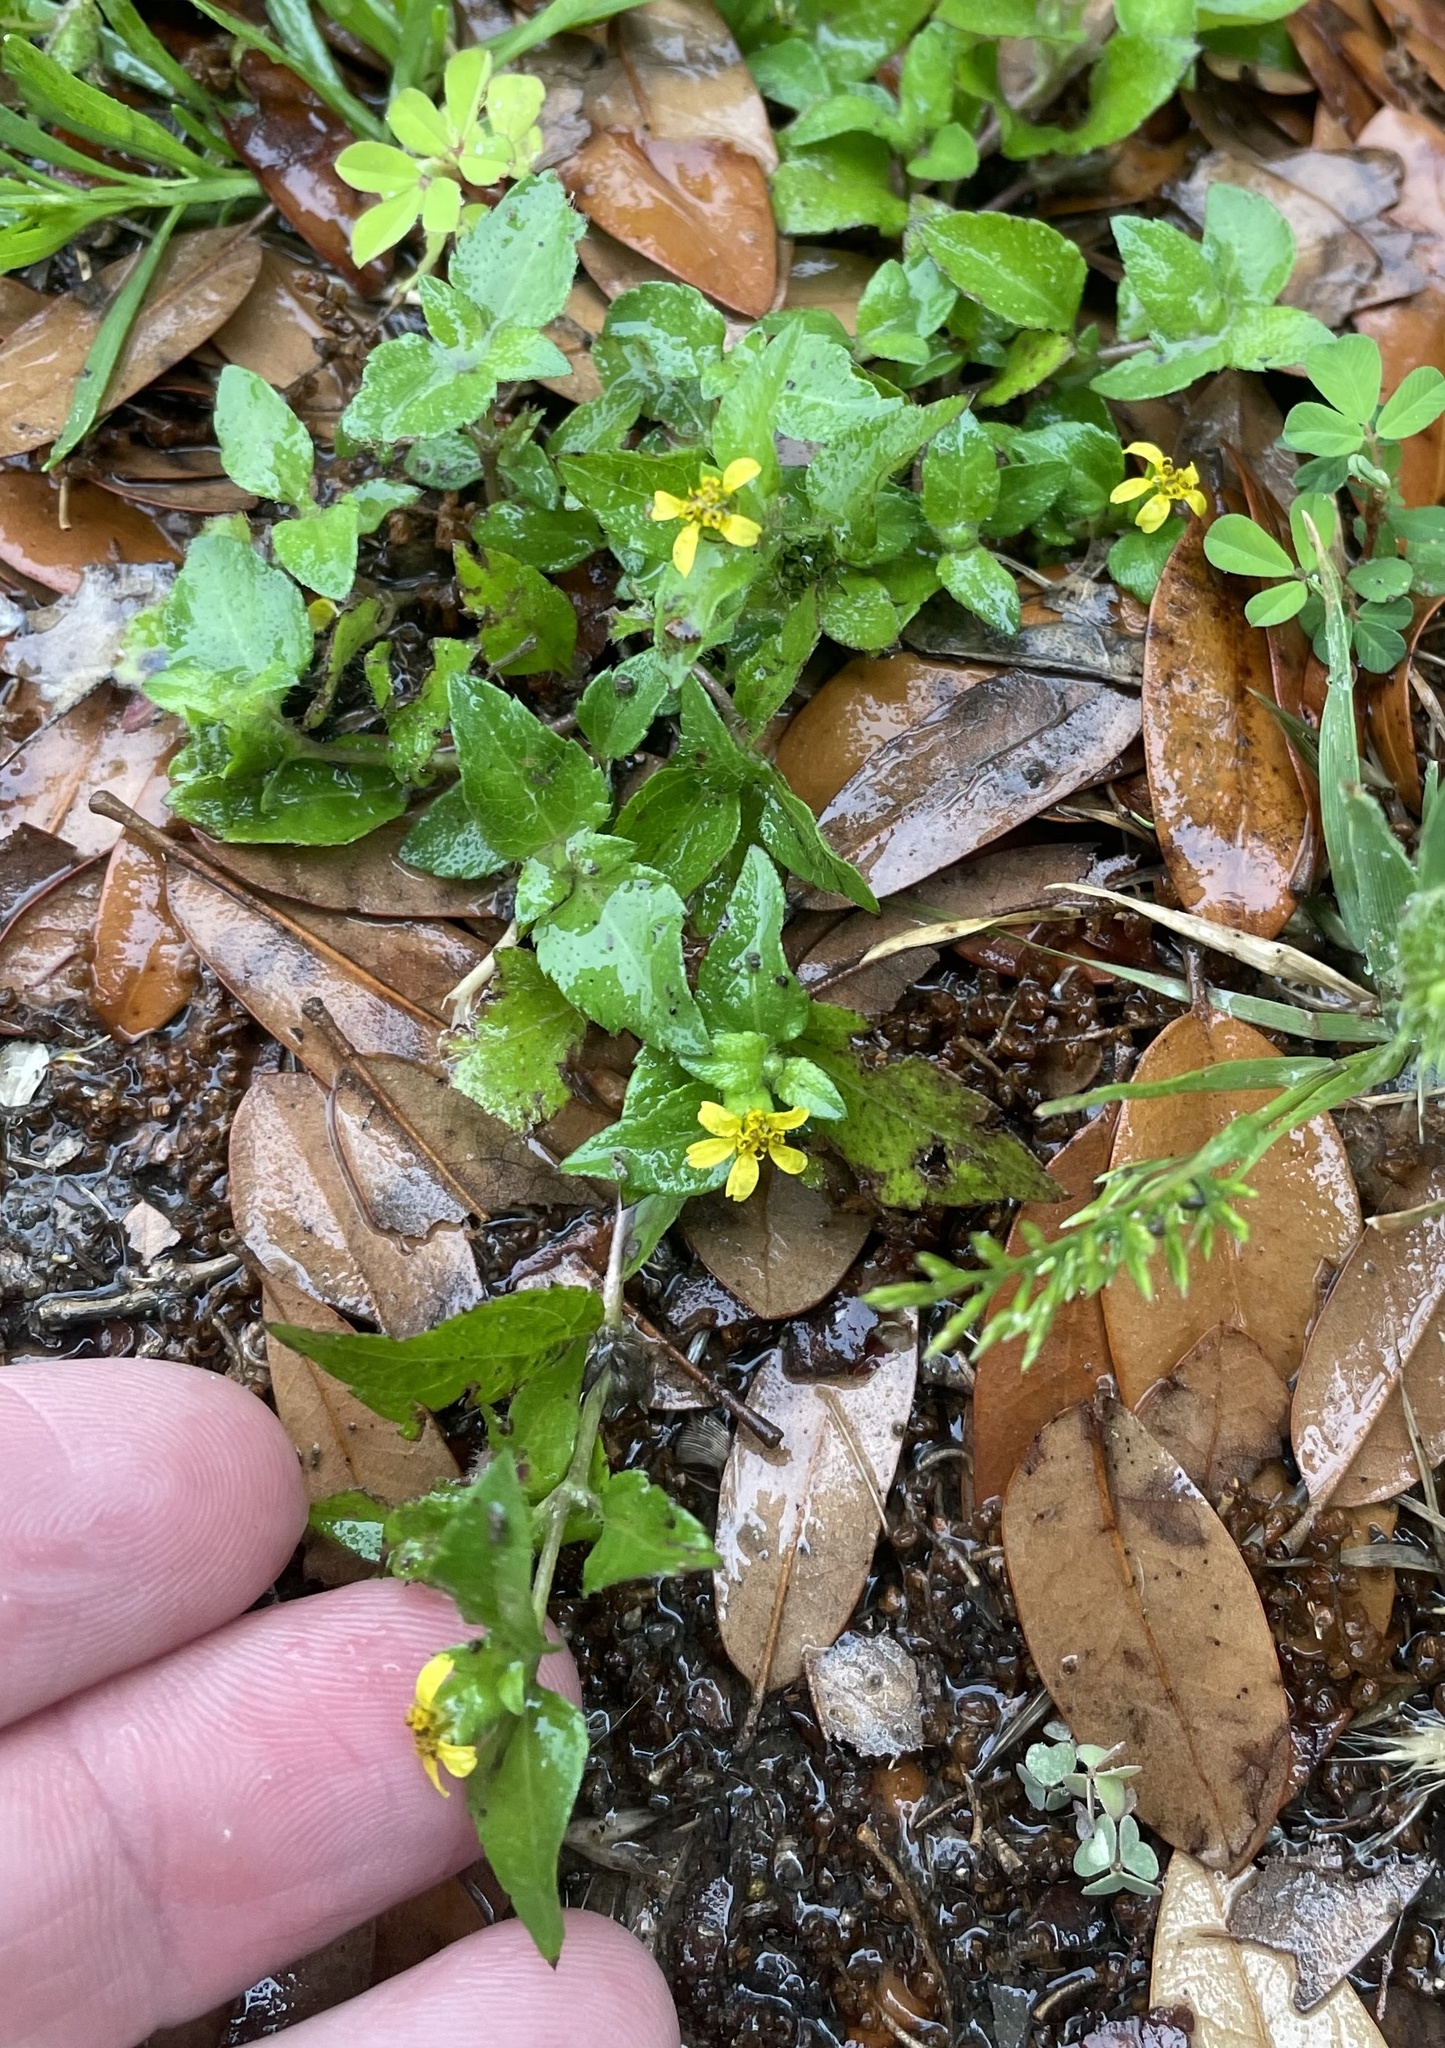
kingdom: Plantae
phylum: Tracheophyta
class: Magnoliopsida
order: Asterales
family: Asteraceae
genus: Calyptocarpus
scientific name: Calyptocarpus vialis
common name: Straggler daisy
